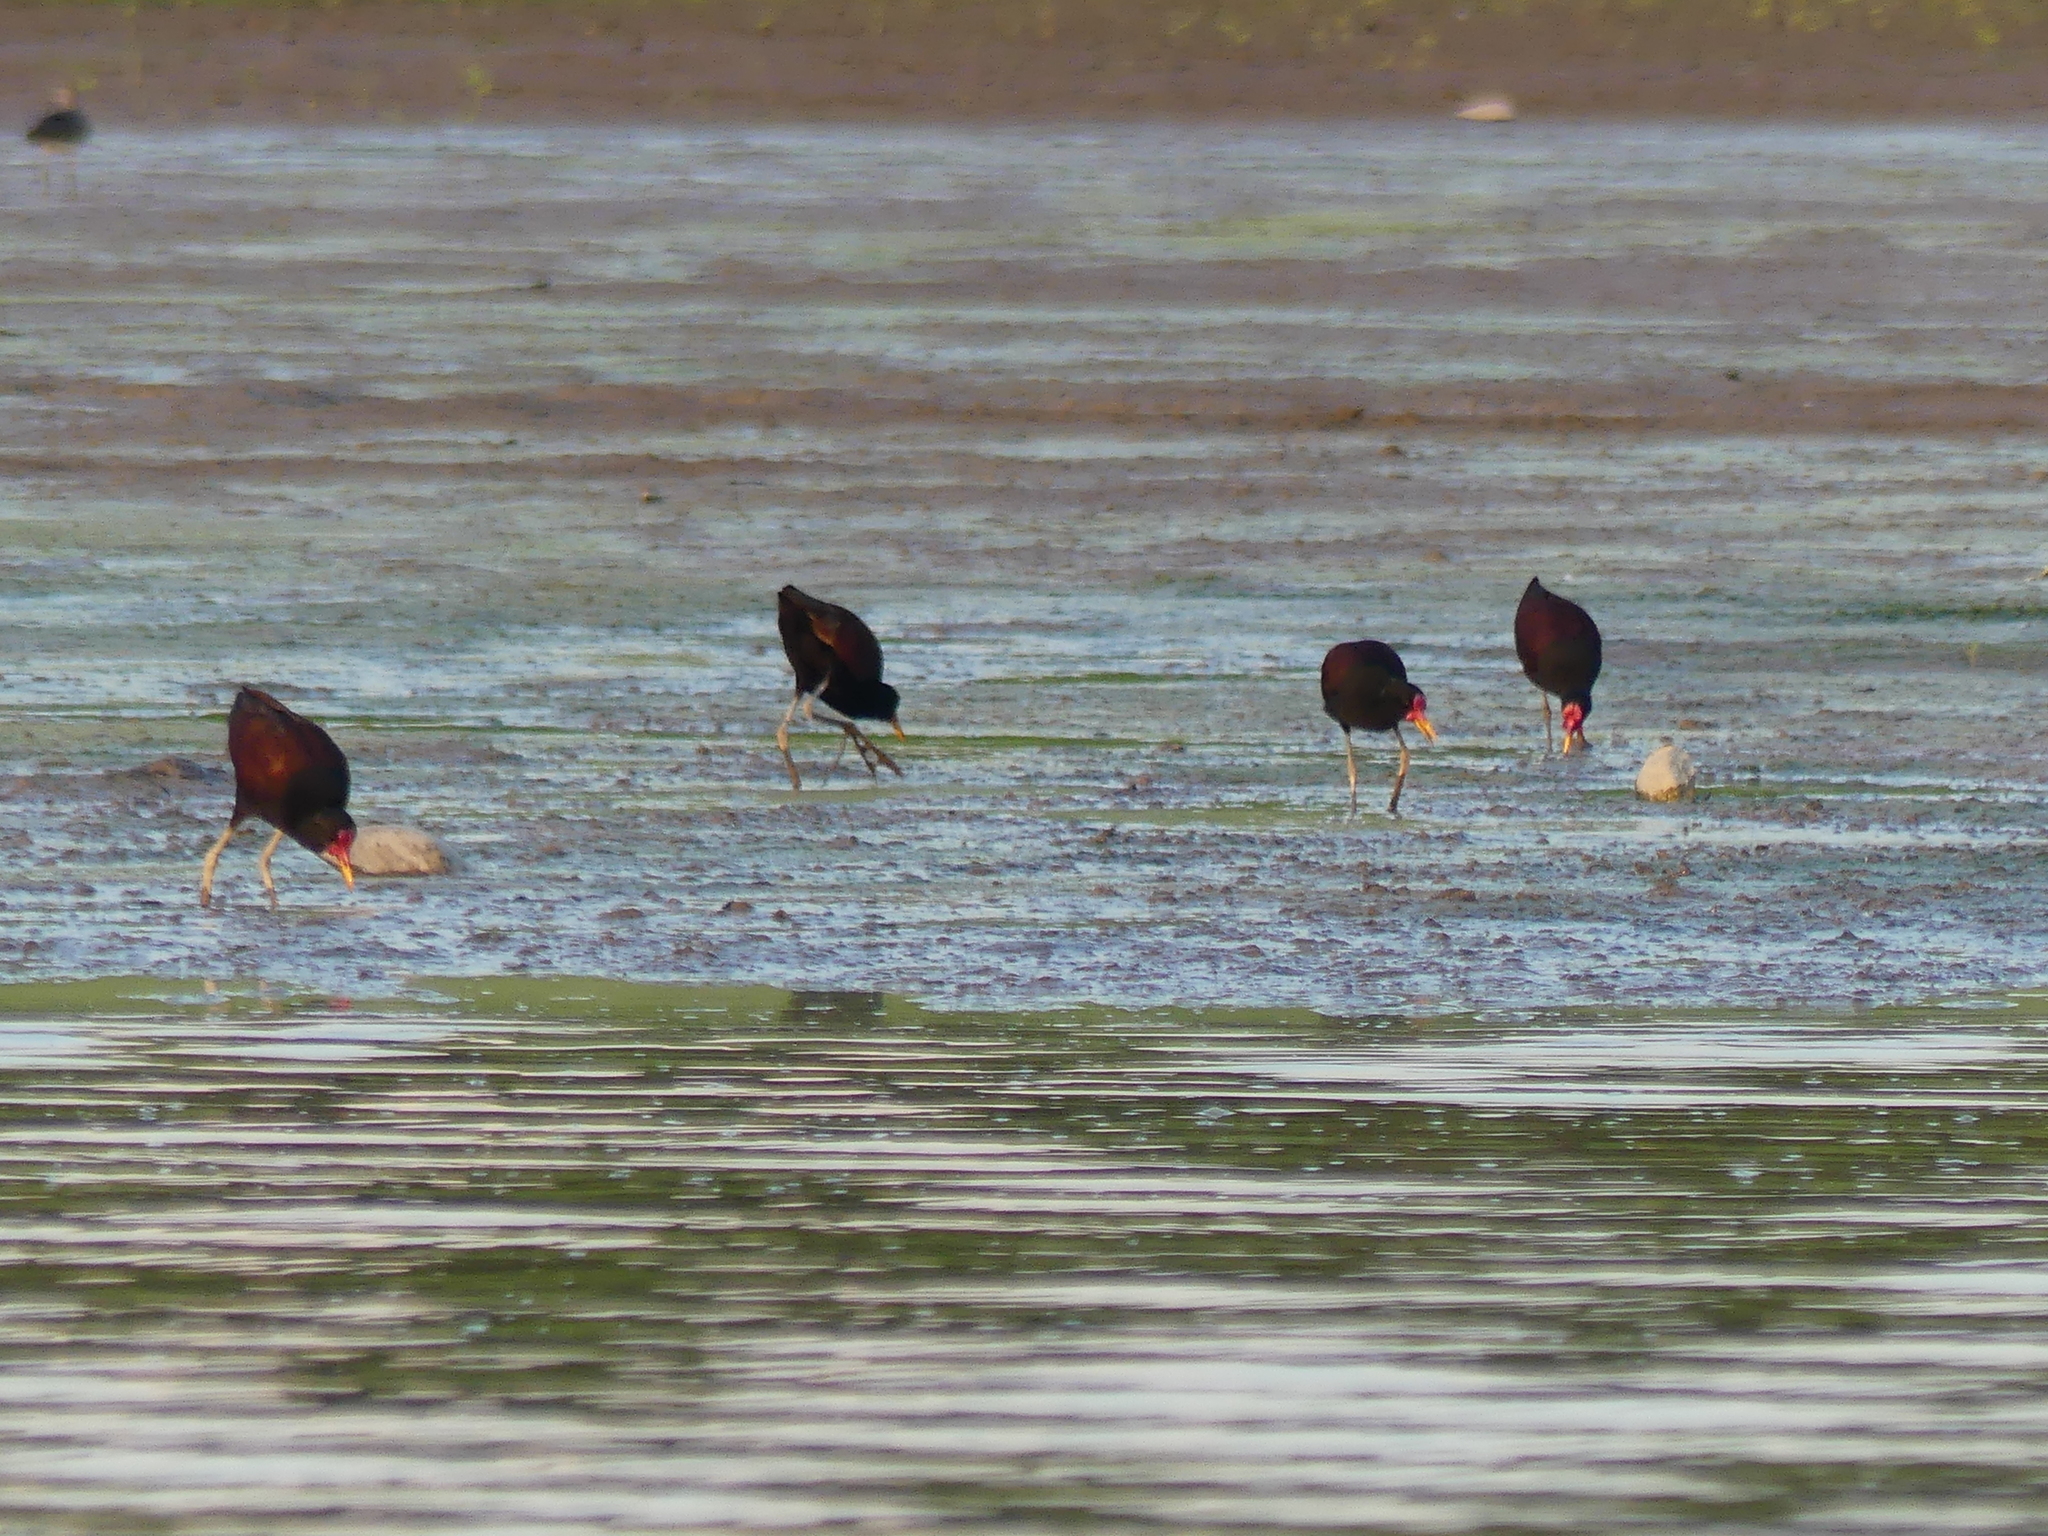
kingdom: Animalia
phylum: Chordata
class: Aves
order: Charadriiformes
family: Jacanidae
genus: Jacana
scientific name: Jacana jacana
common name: Wattled jacana
